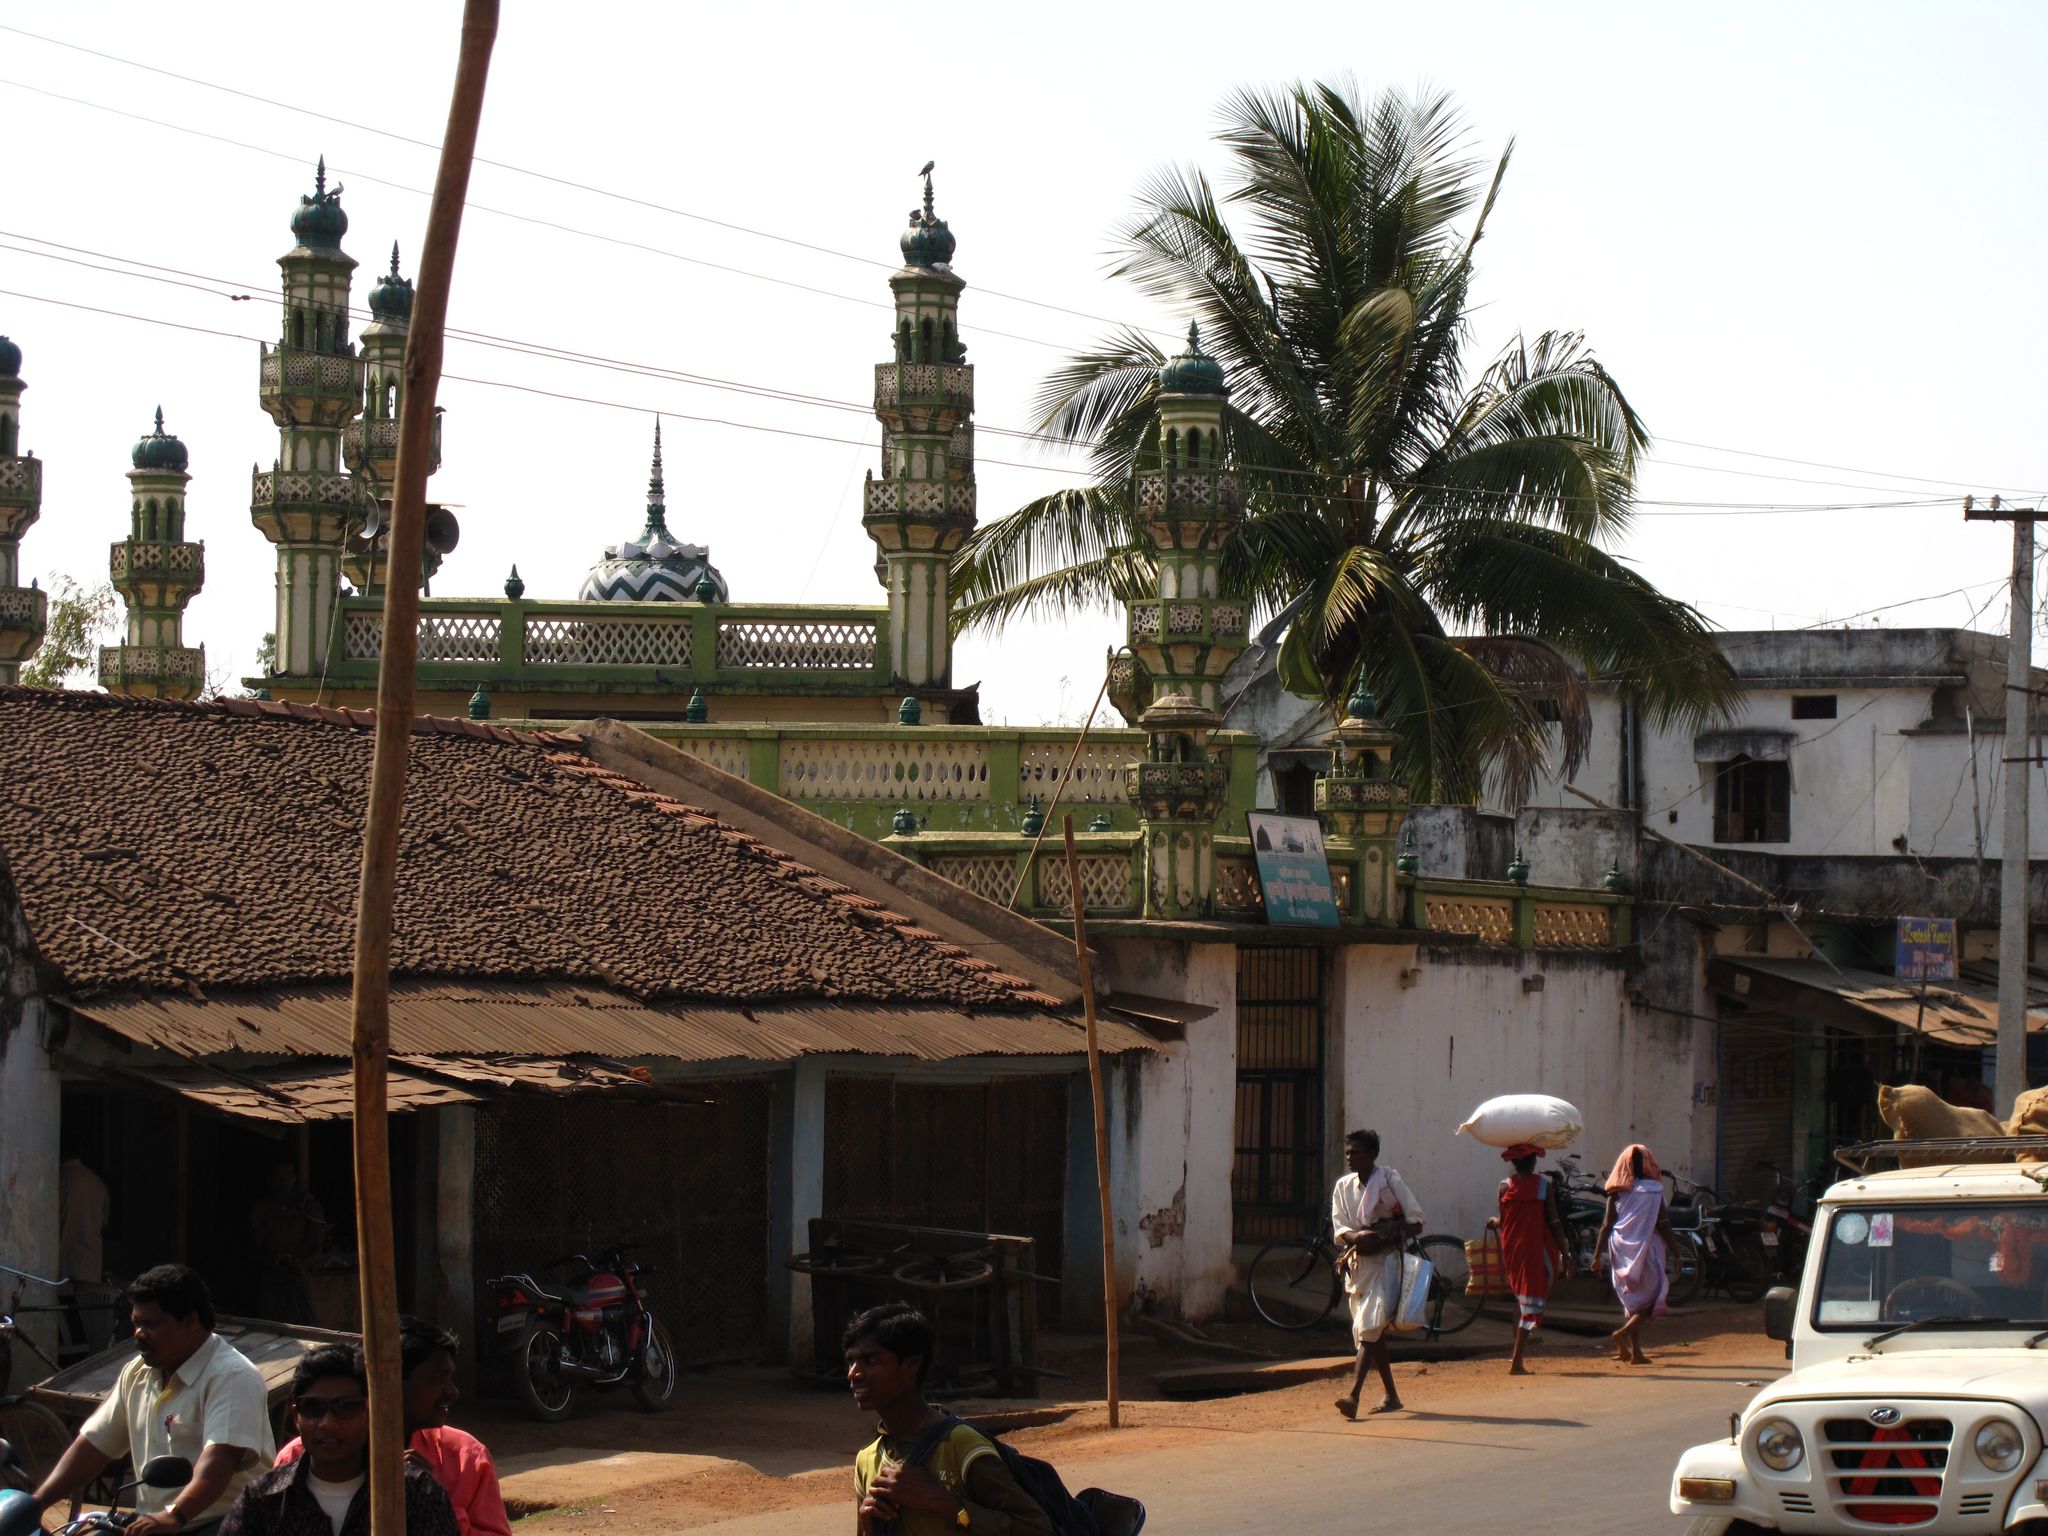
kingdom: Plantae
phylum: Tracheophyta
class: Liliopsida
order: Arecales
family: Arecaceae
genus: Cocos
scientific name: Cocos nucifera
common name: Coconut palm
